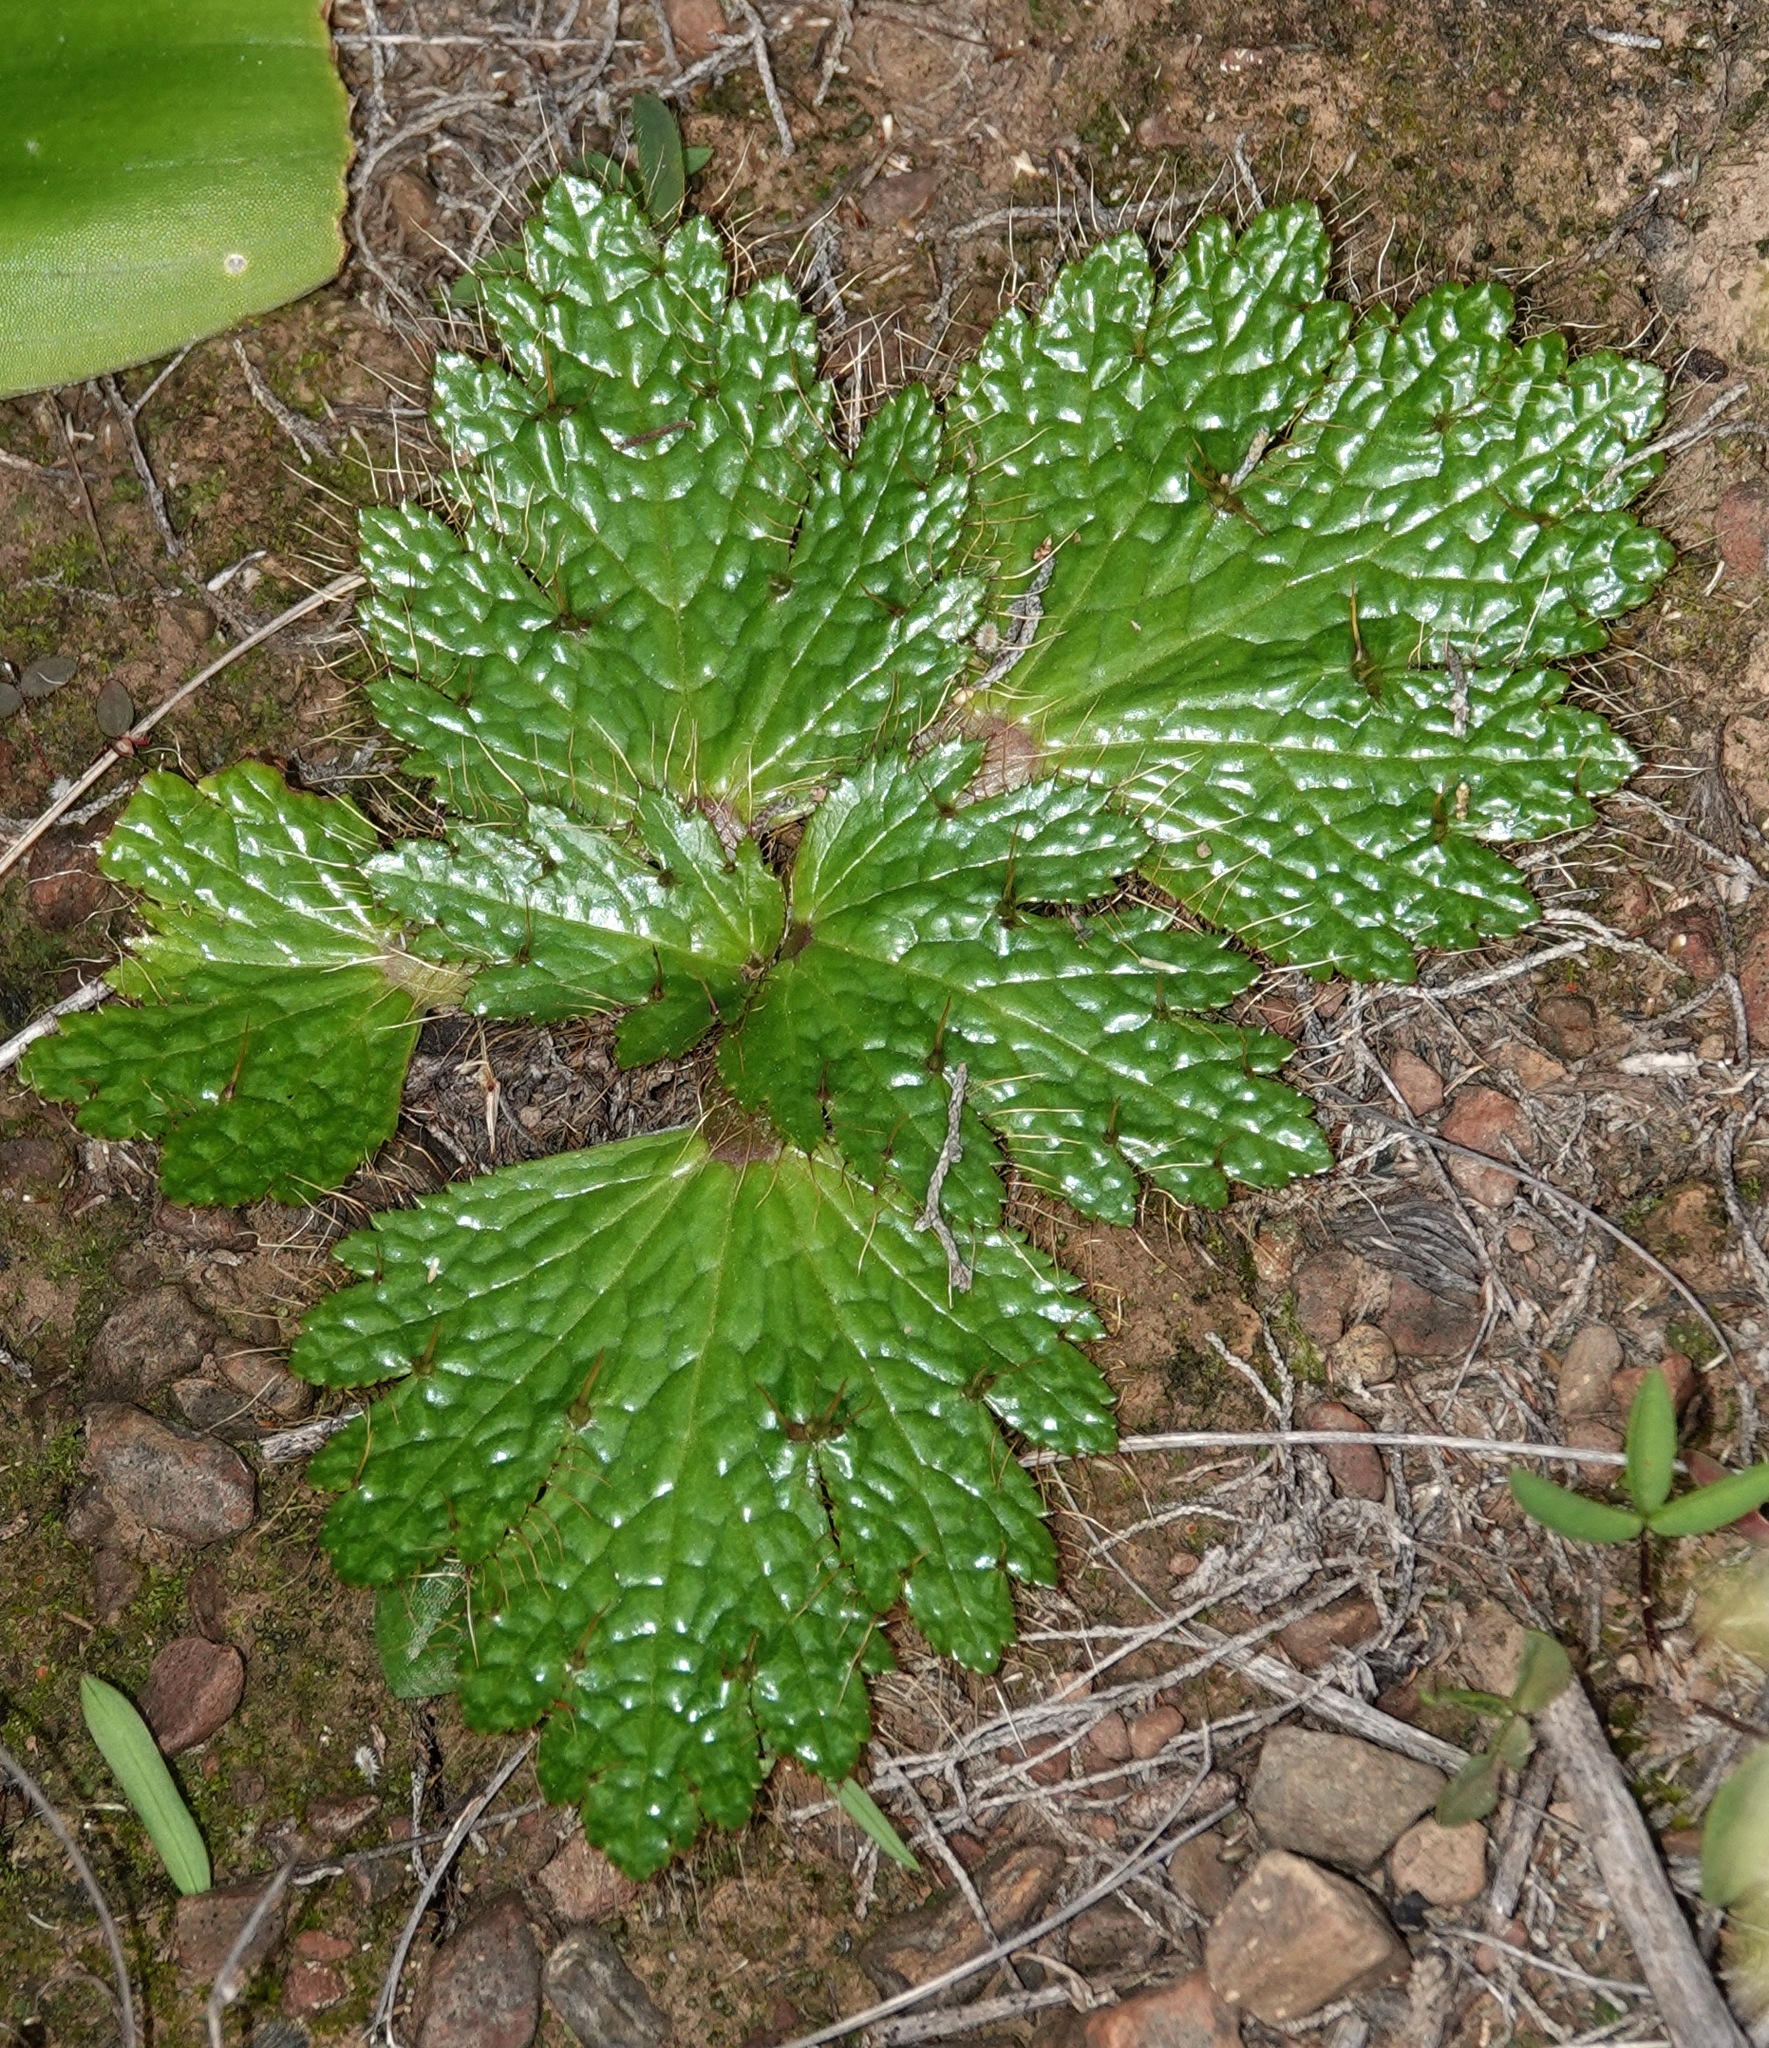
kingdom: Plantae
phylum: Tracheophyta
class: Magnoliopsida
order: Apiales
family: Apiaceae
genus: Arctopus
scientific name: Arctopus echinatus
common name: Platdoring
